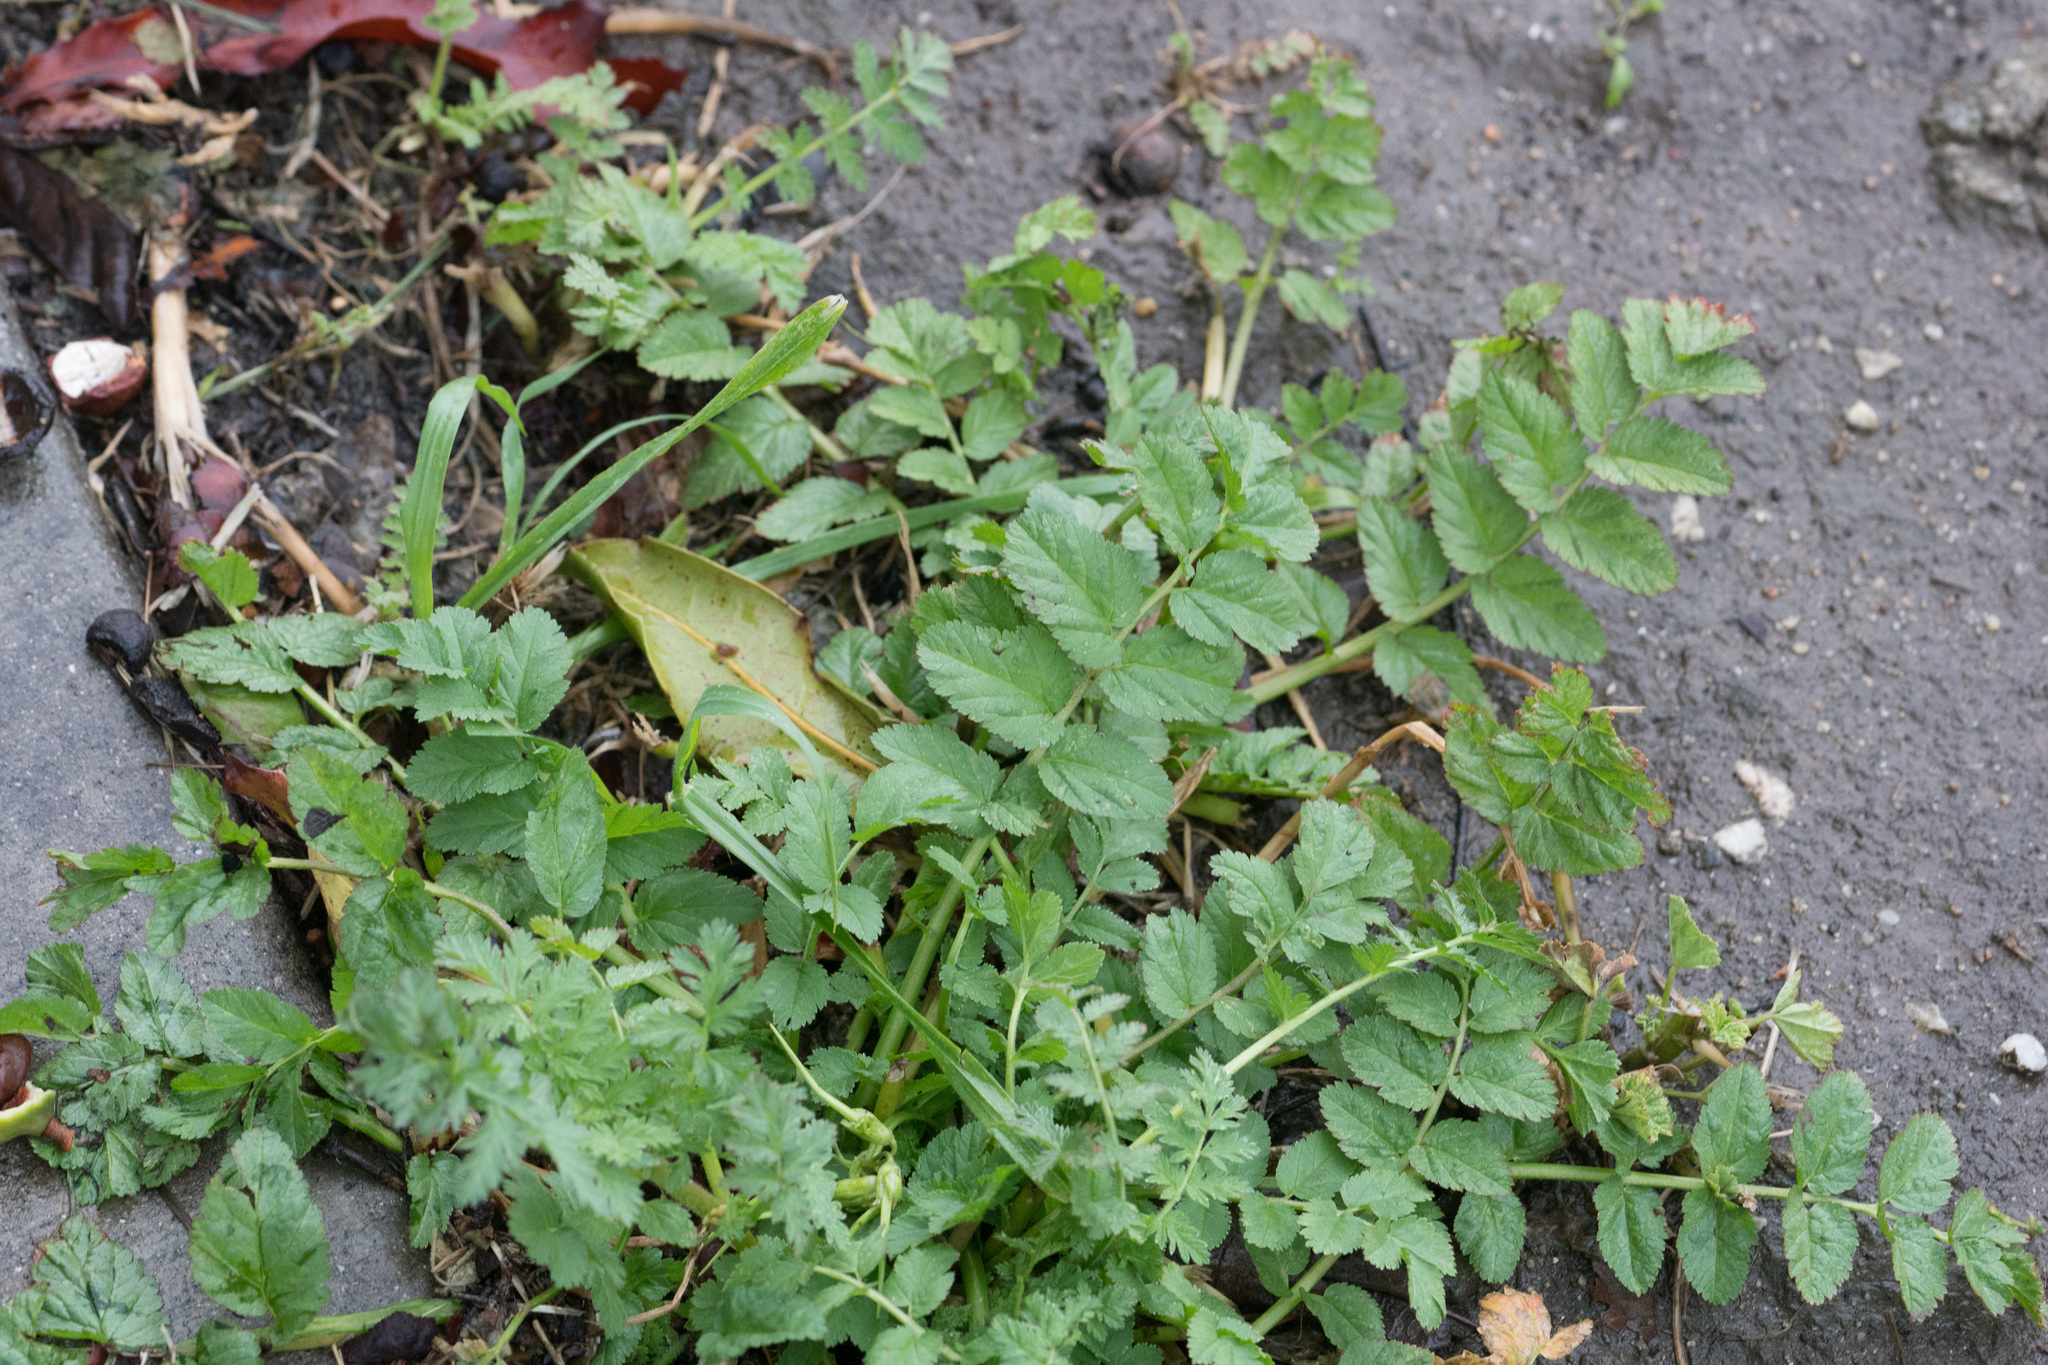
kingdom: Plantae
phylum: Tracheophyta
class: Magnoliopsida
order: Geraniales
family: Geraniaceae
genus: Erodium
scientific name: Erodium moschatum
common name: Musk stork's-bill
